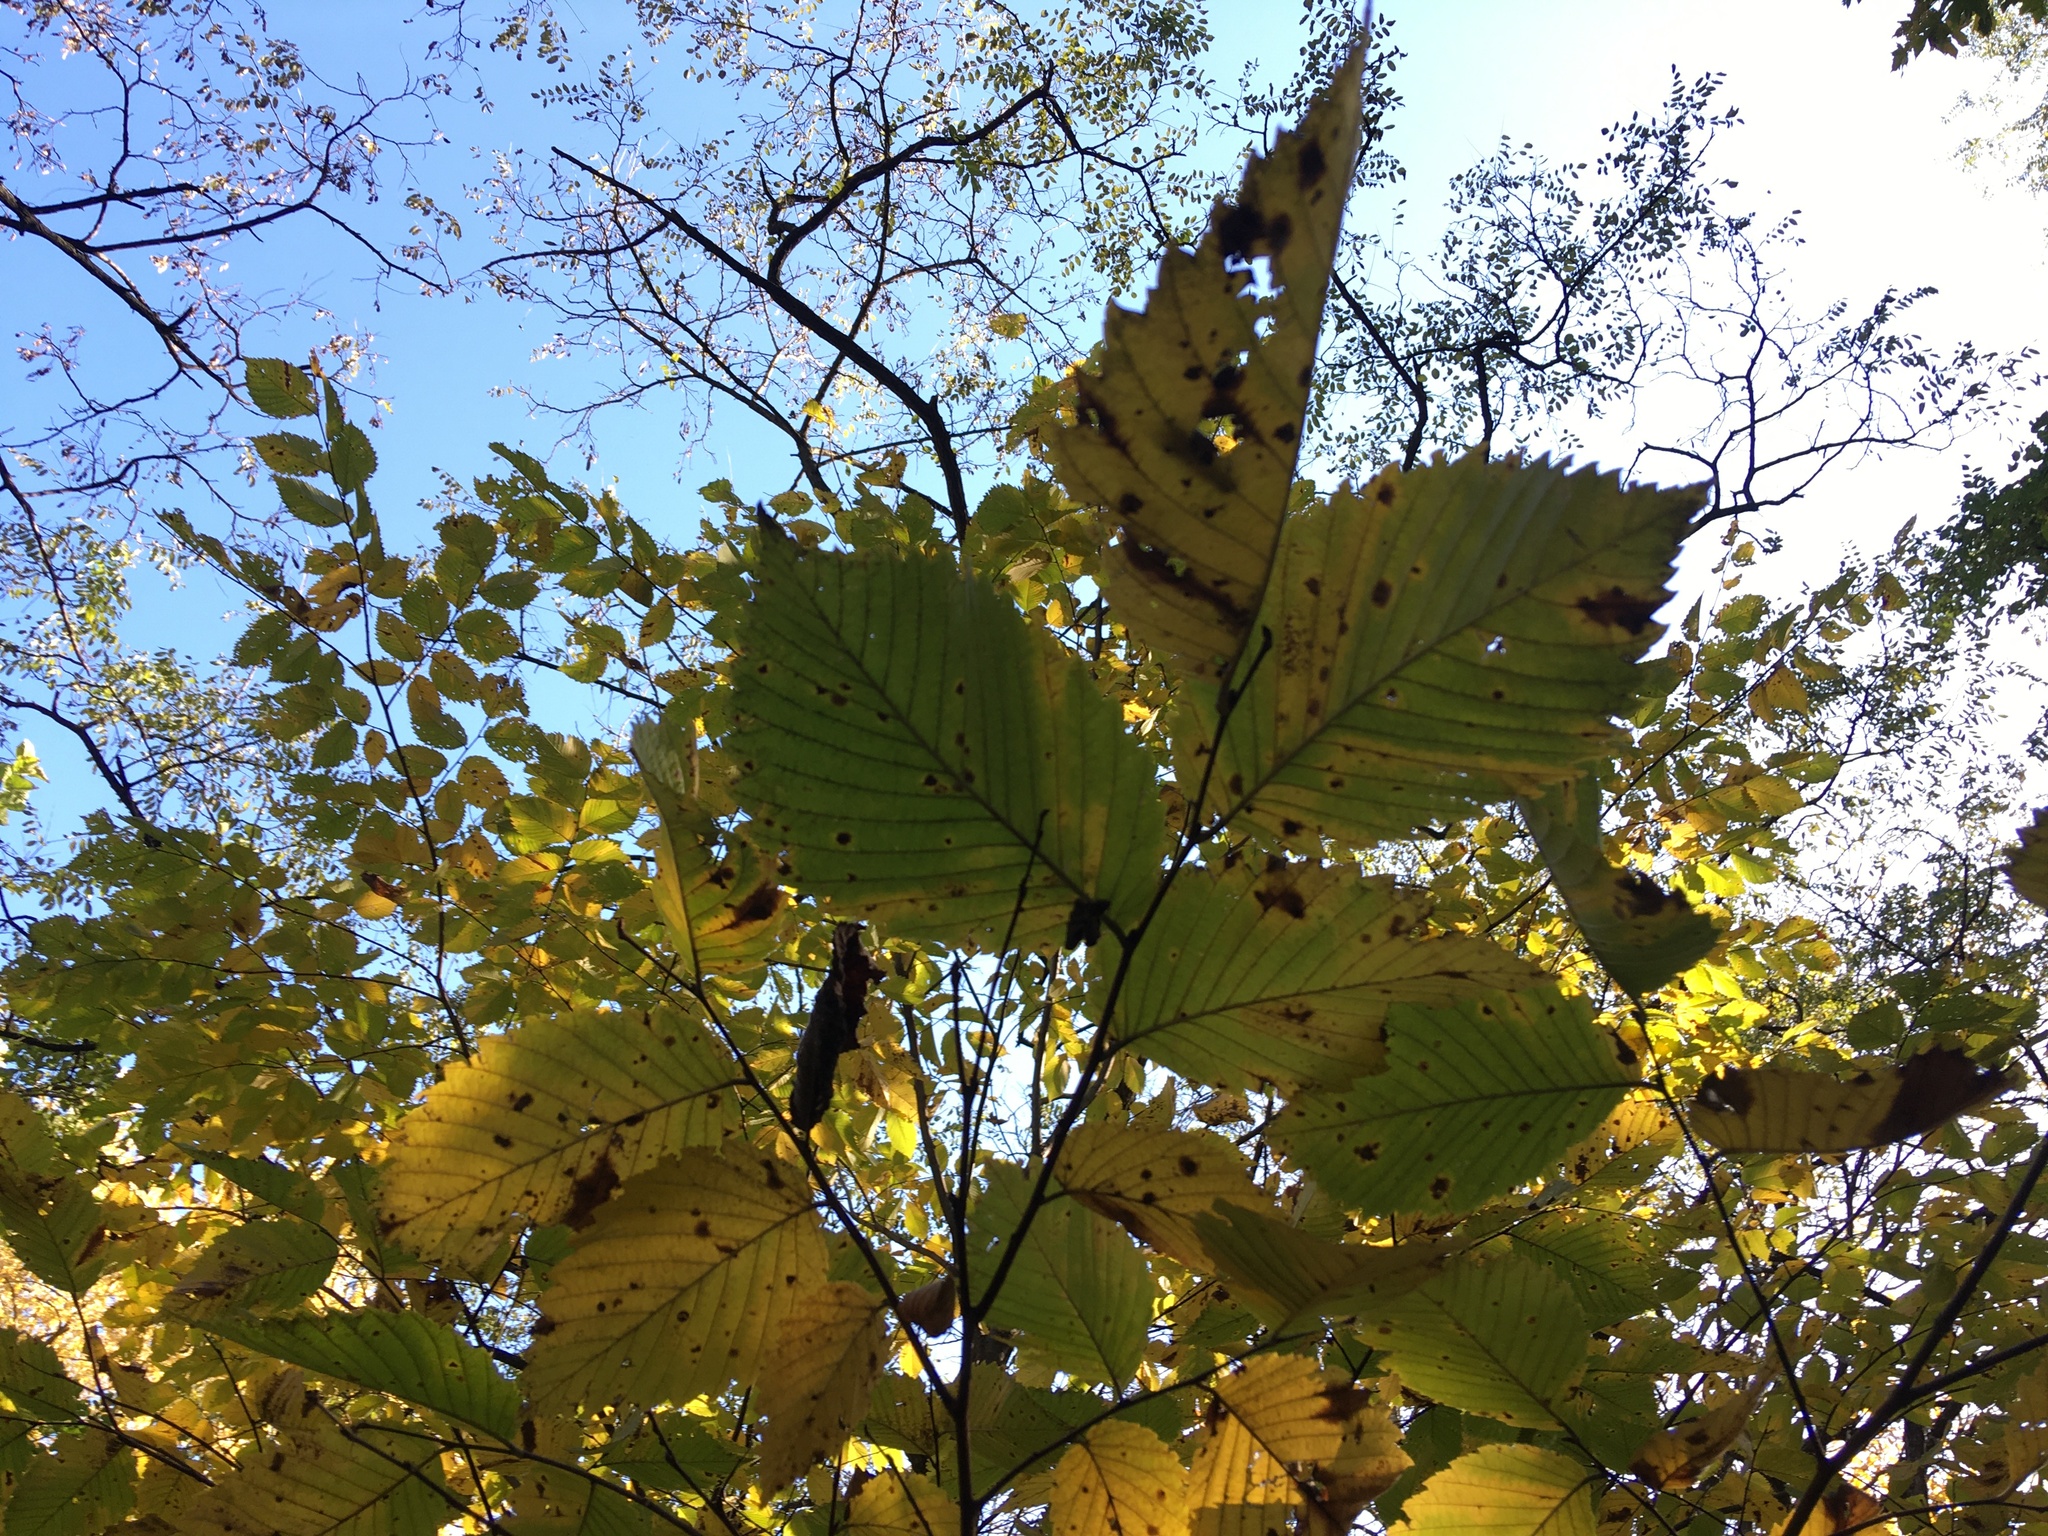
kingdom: Plantae
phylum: Tracheophyta
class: Magnoliopsida
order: Rosales
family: Ulmaceae
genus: Ulmus
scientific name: Ulmus americana
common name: American elm
